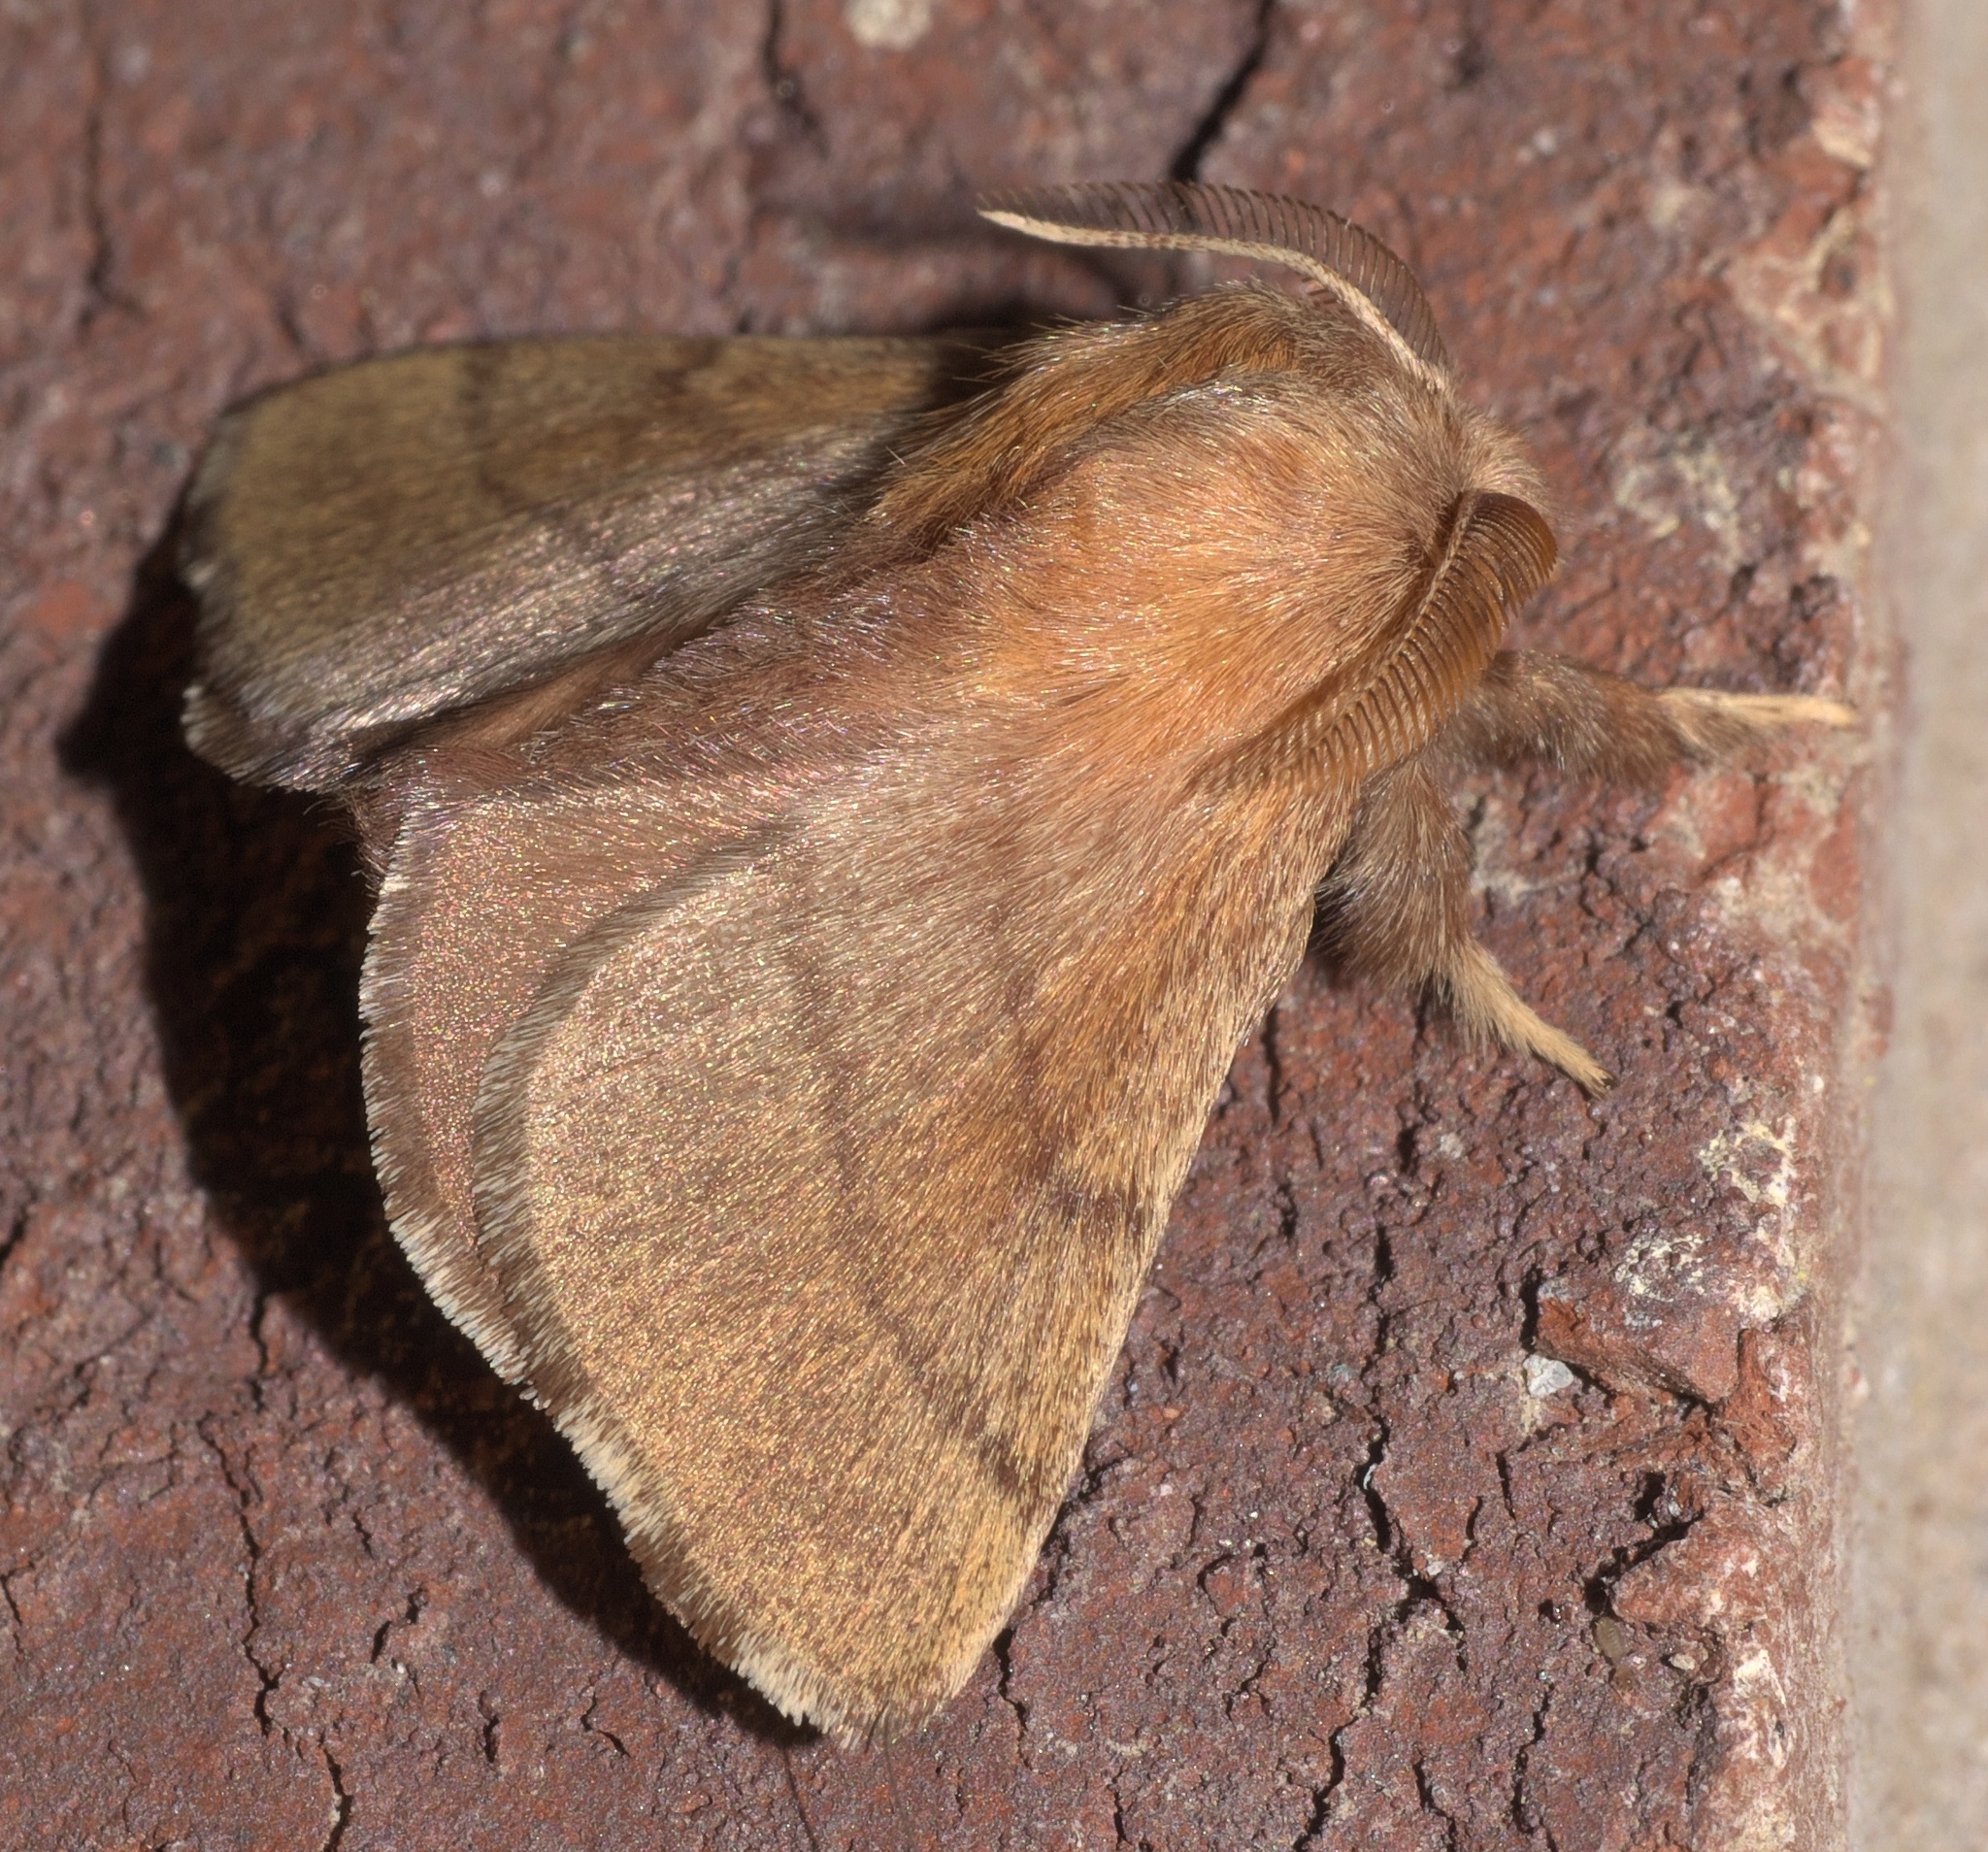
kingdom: Animalia
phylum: Arthropoda
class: Insecta
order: Lepidoptera
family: Lasiocampidae
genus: Malacosoma
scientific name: Malacosoma disstria
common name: Forest tent caterpillar
